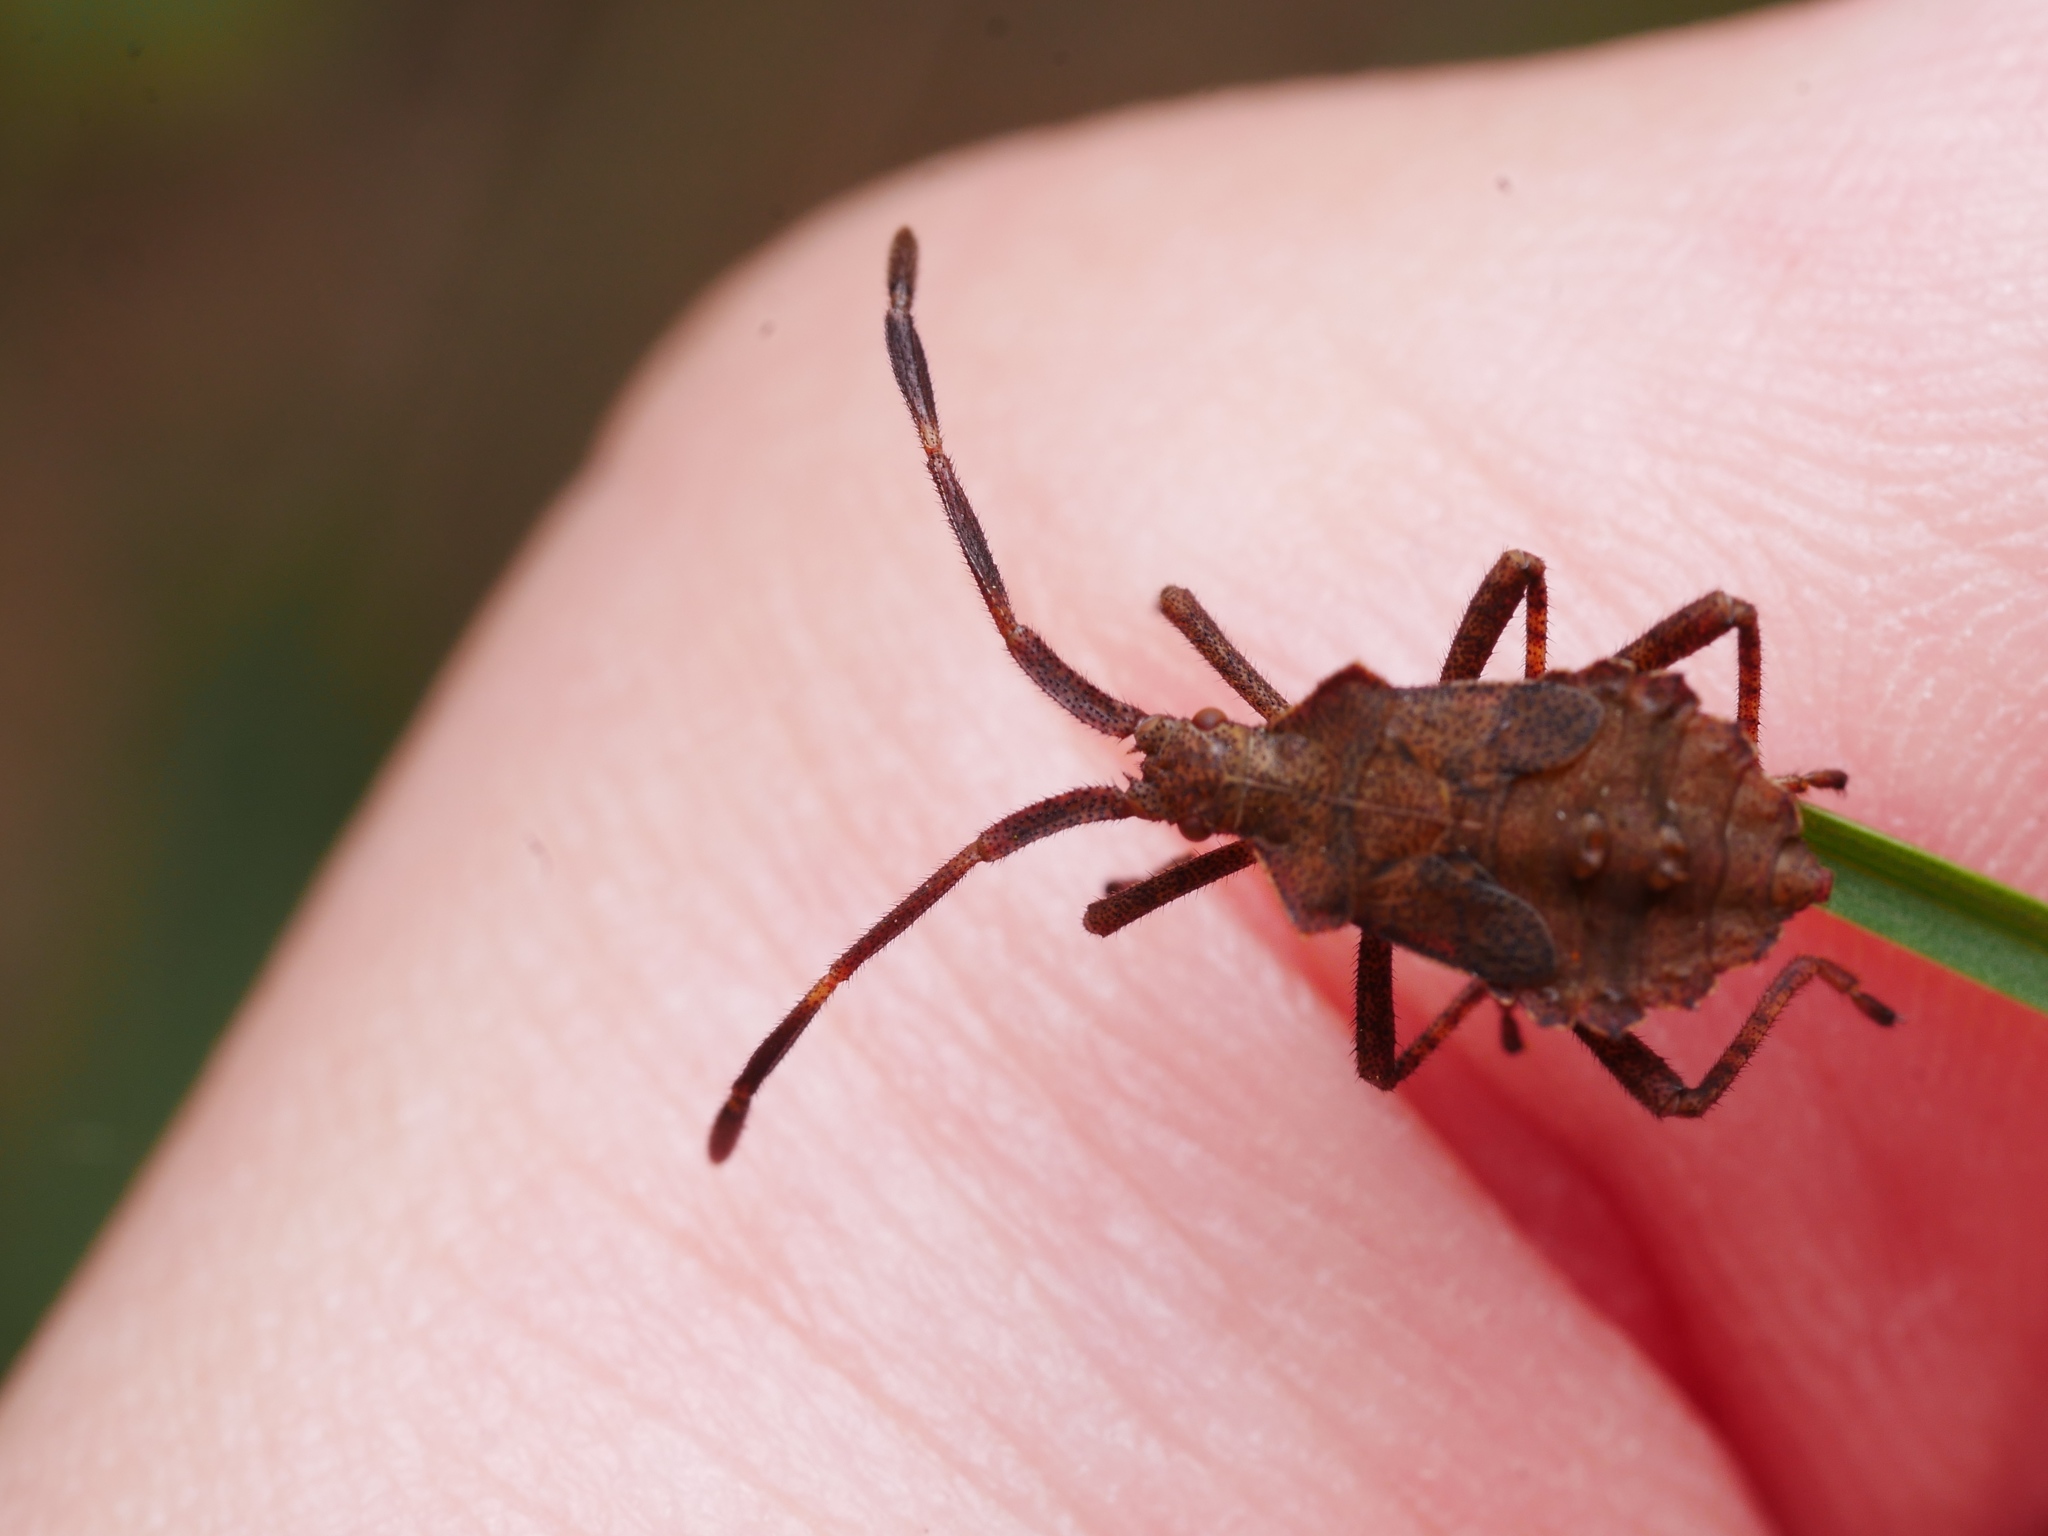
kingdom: Animalia
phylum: Arthropoda
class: Insecta
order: Hemiptera
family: Coreidae
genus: Coreus
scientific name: Coreus marginatus
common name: Dock bug
